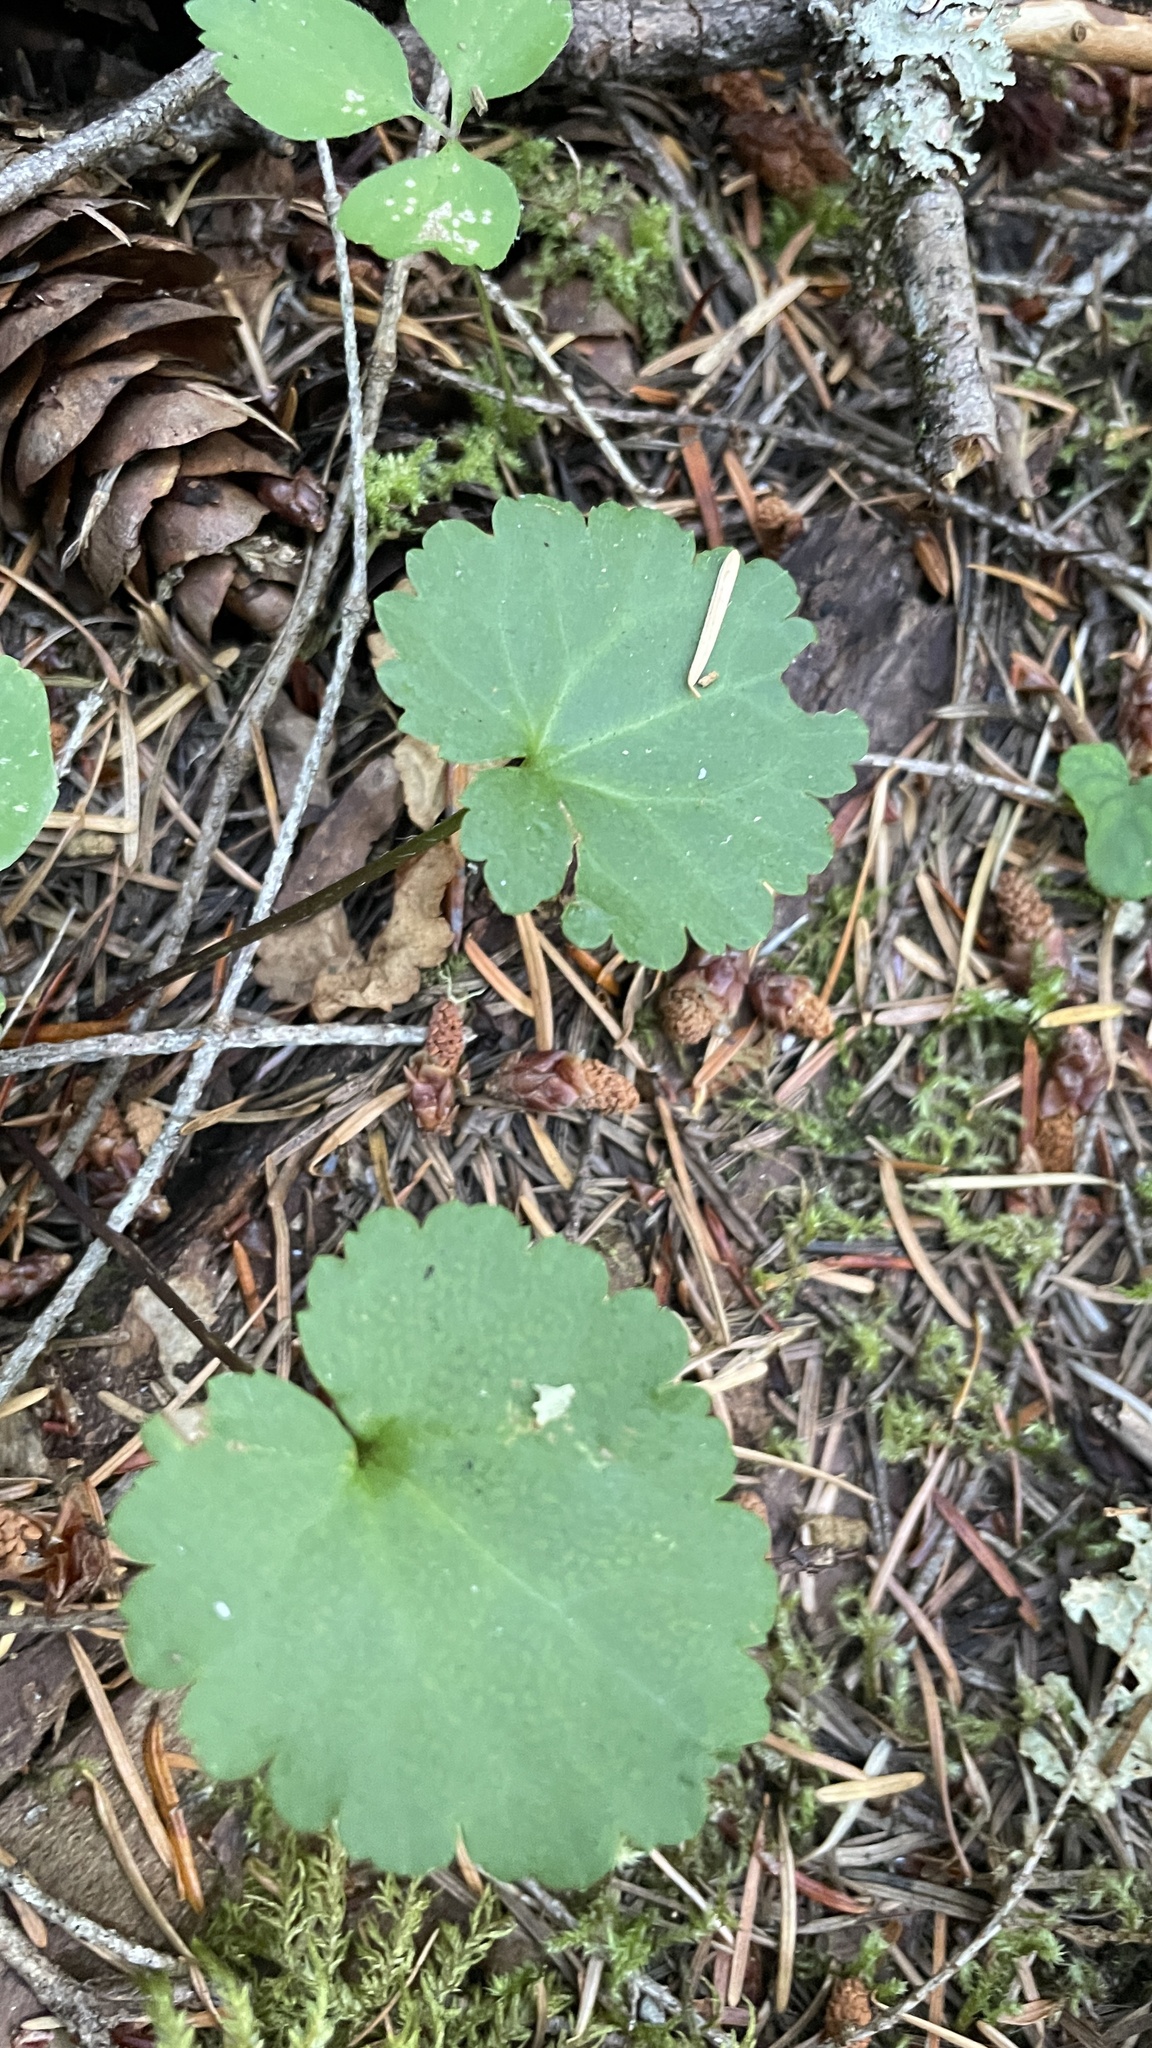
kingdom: Plantae
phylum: Tracheophyta
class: Magnoliopsida
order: Lamiales
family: Plantaginaceae
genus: Synthyris
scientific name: Synthyris reniformis
